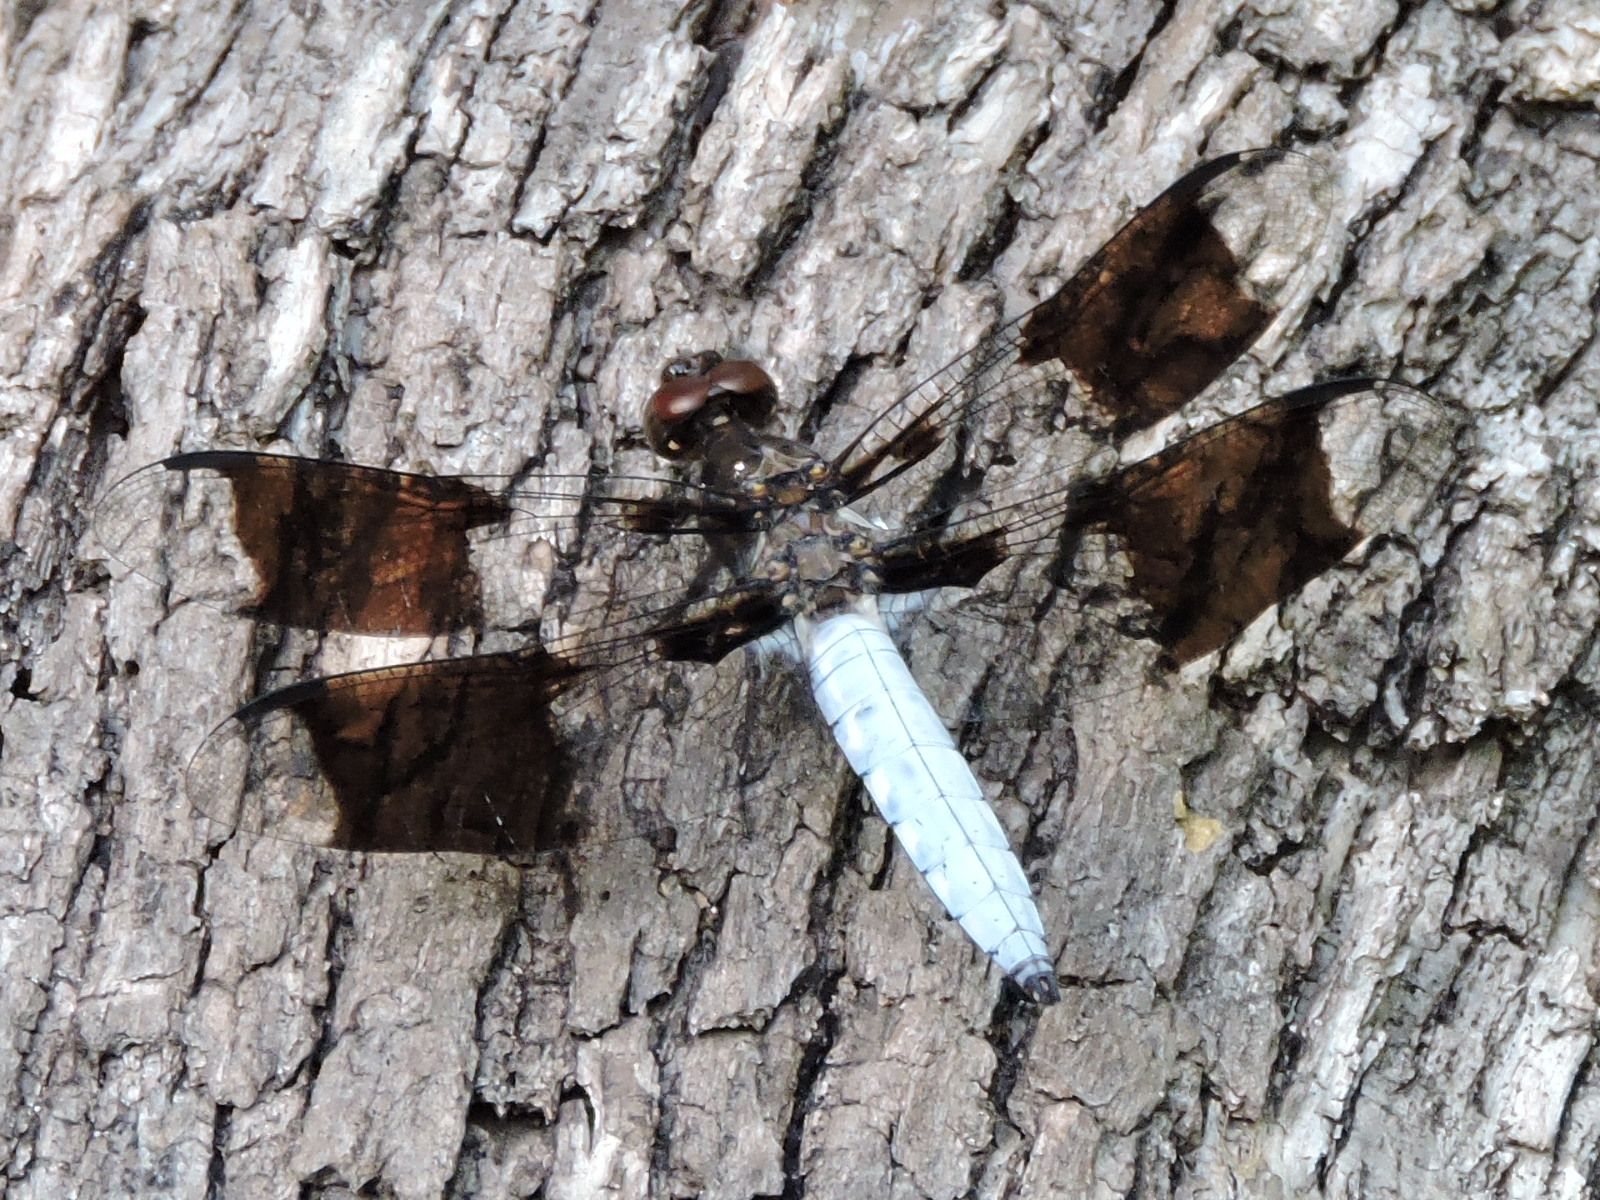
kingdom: Animalia
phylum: Arthropoda
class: Insecta
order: Odonata
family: Libellulidae
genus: Plathemis
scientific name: Plathemis lydia
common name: Common whitetail
